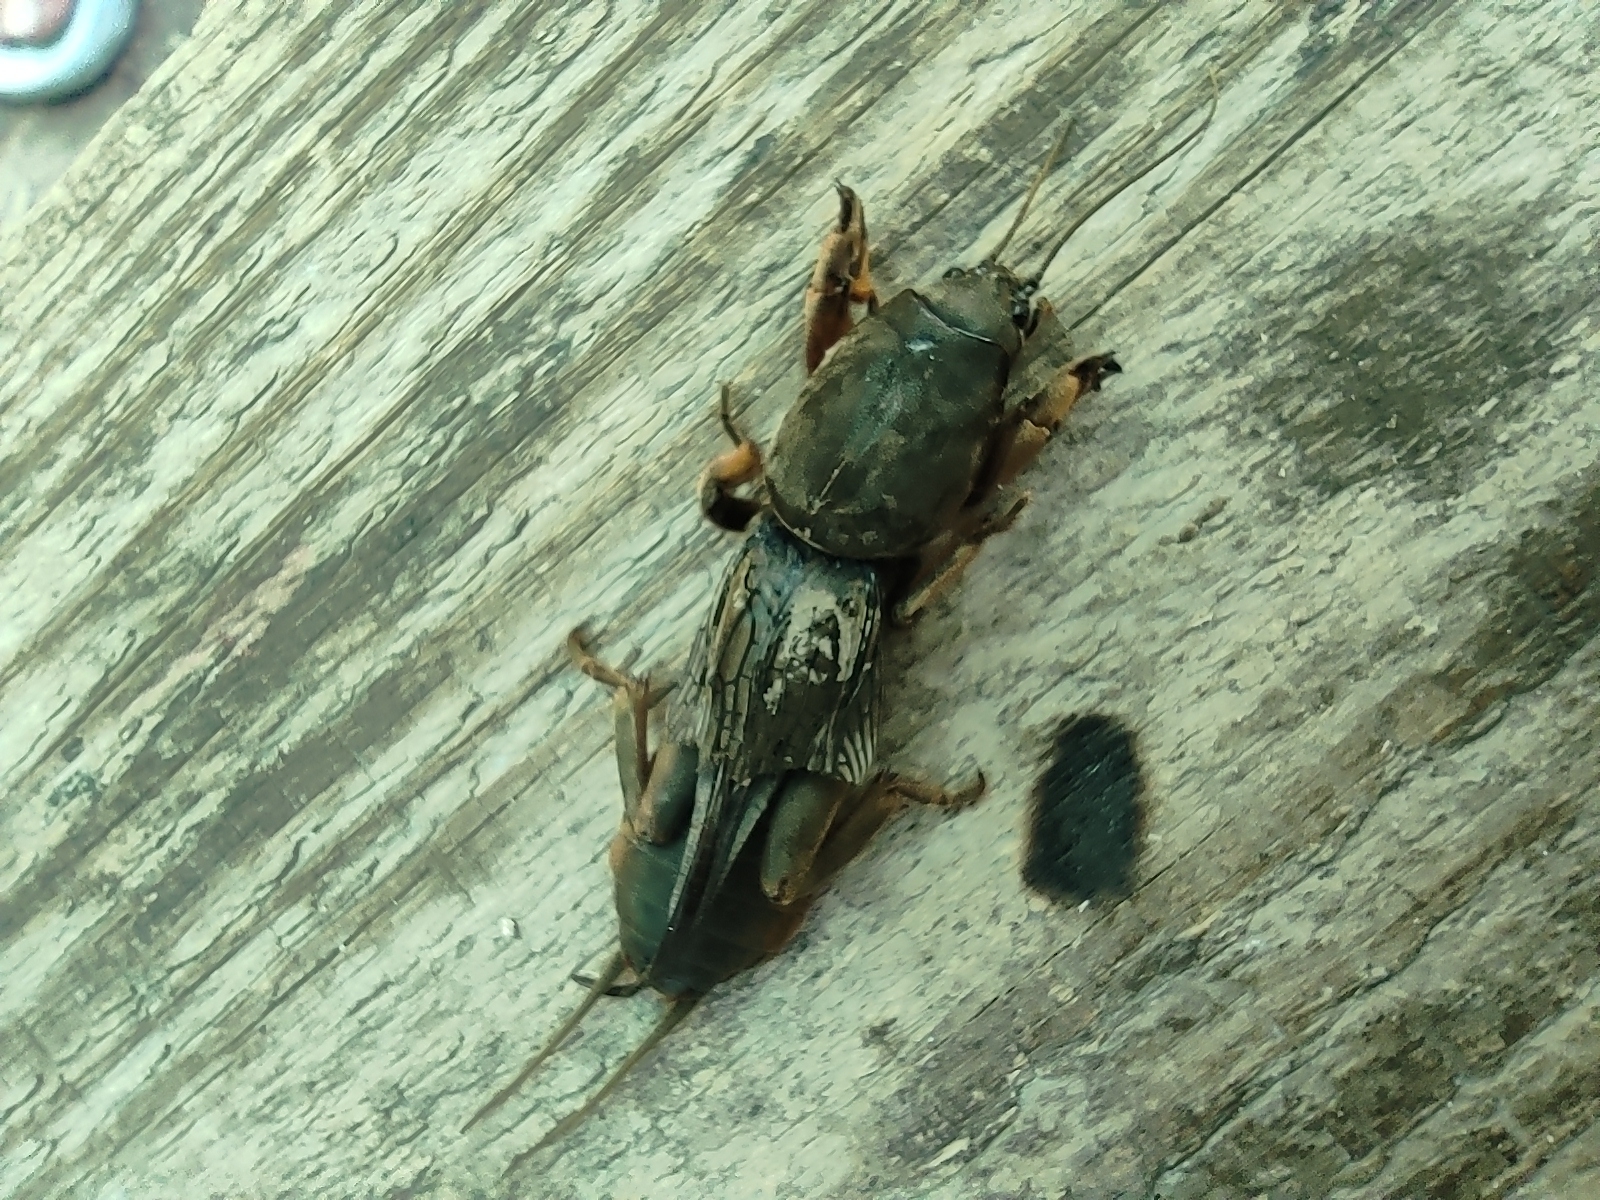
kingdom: Animalia
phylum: Arthropoda
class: Insecta
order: Orthoptera
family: Gryllotalpidae
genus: Gryllotalpa
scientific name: Gryllotalpa gryllotalpa
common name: European mole cricket
